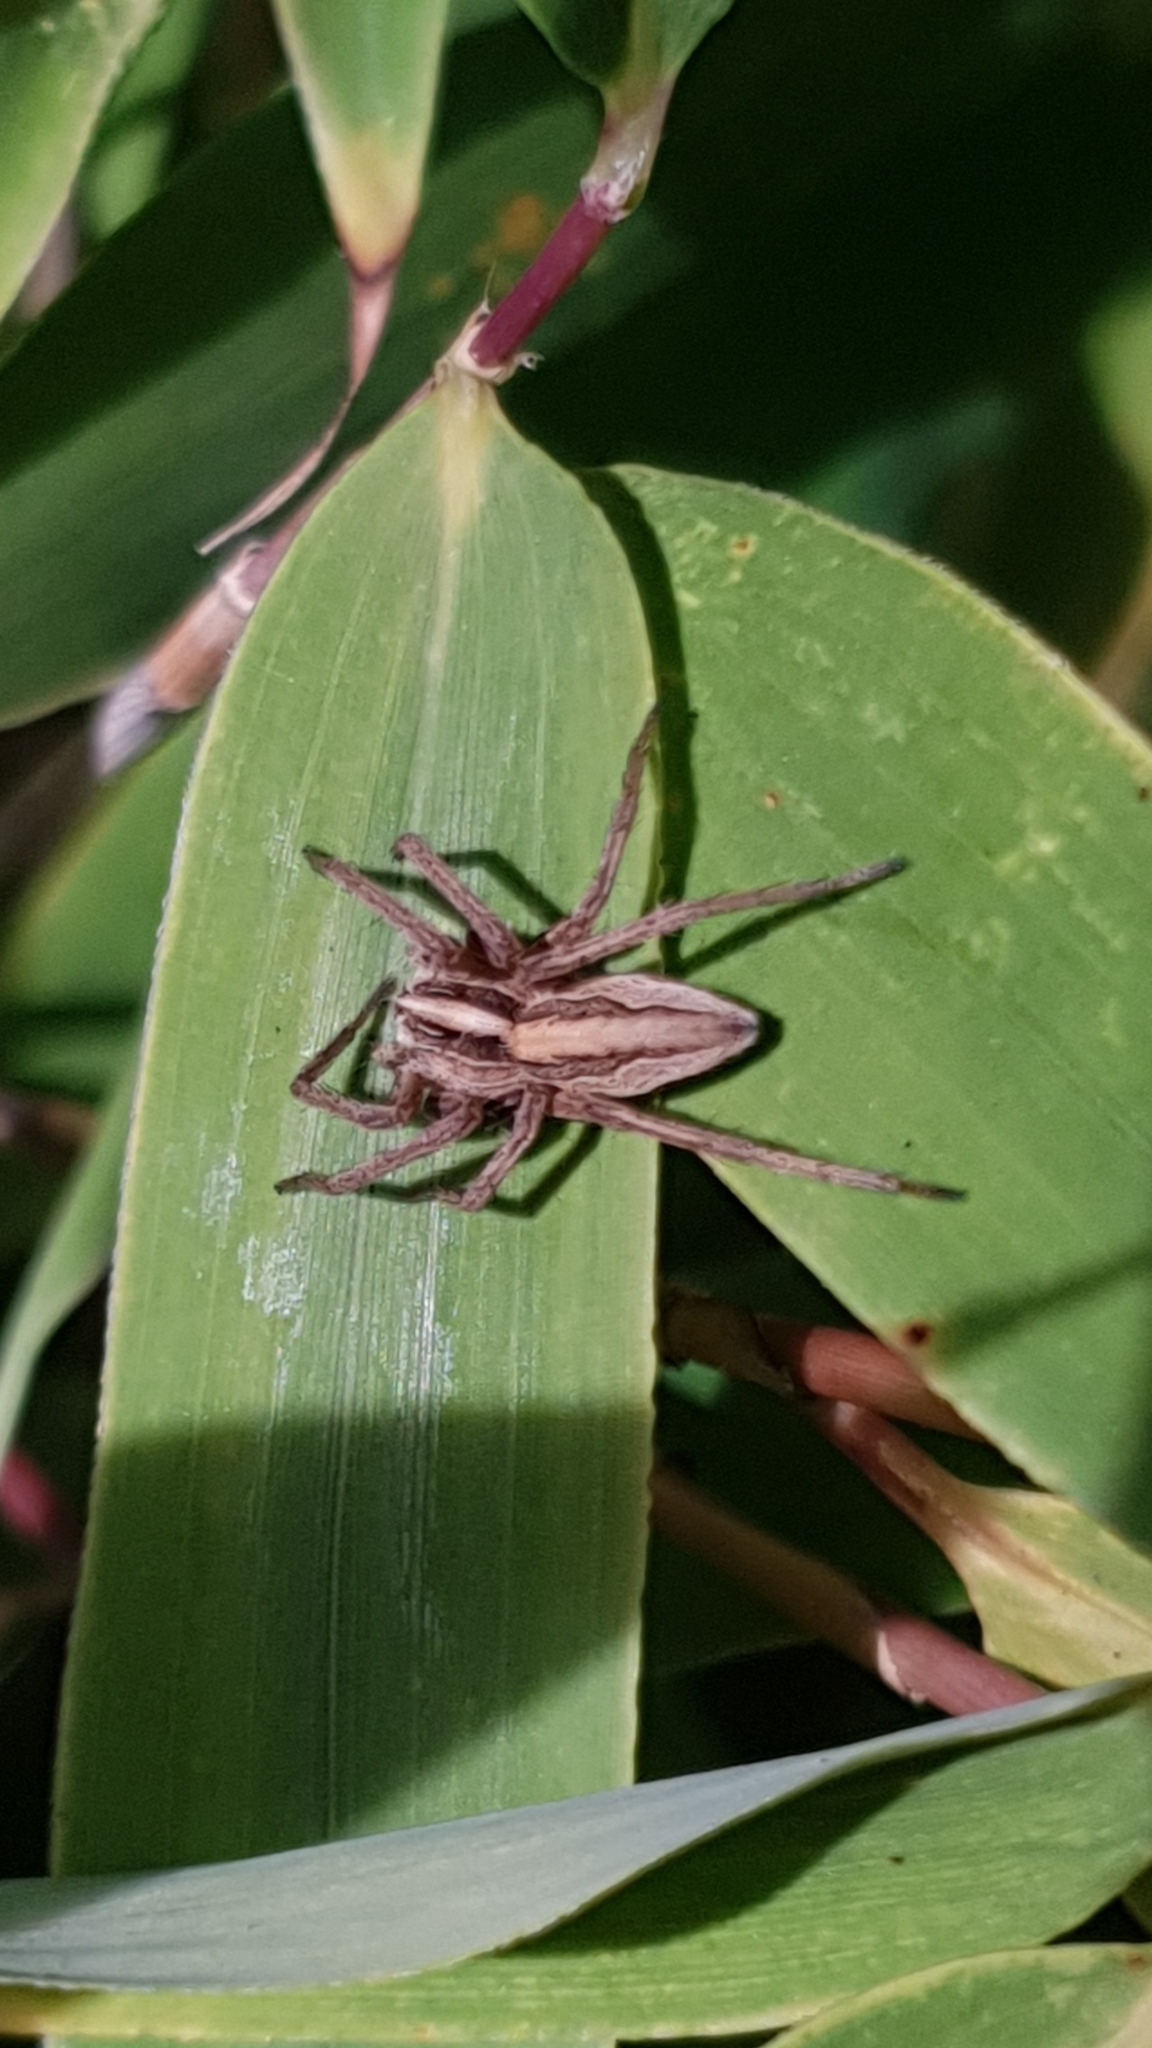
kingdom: Animalia
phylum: Arthropoda
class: Arachnida
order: Araneae
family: Pisauridae
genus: Pisaura
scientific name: Pisaura mirabilis
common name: Tent spider
